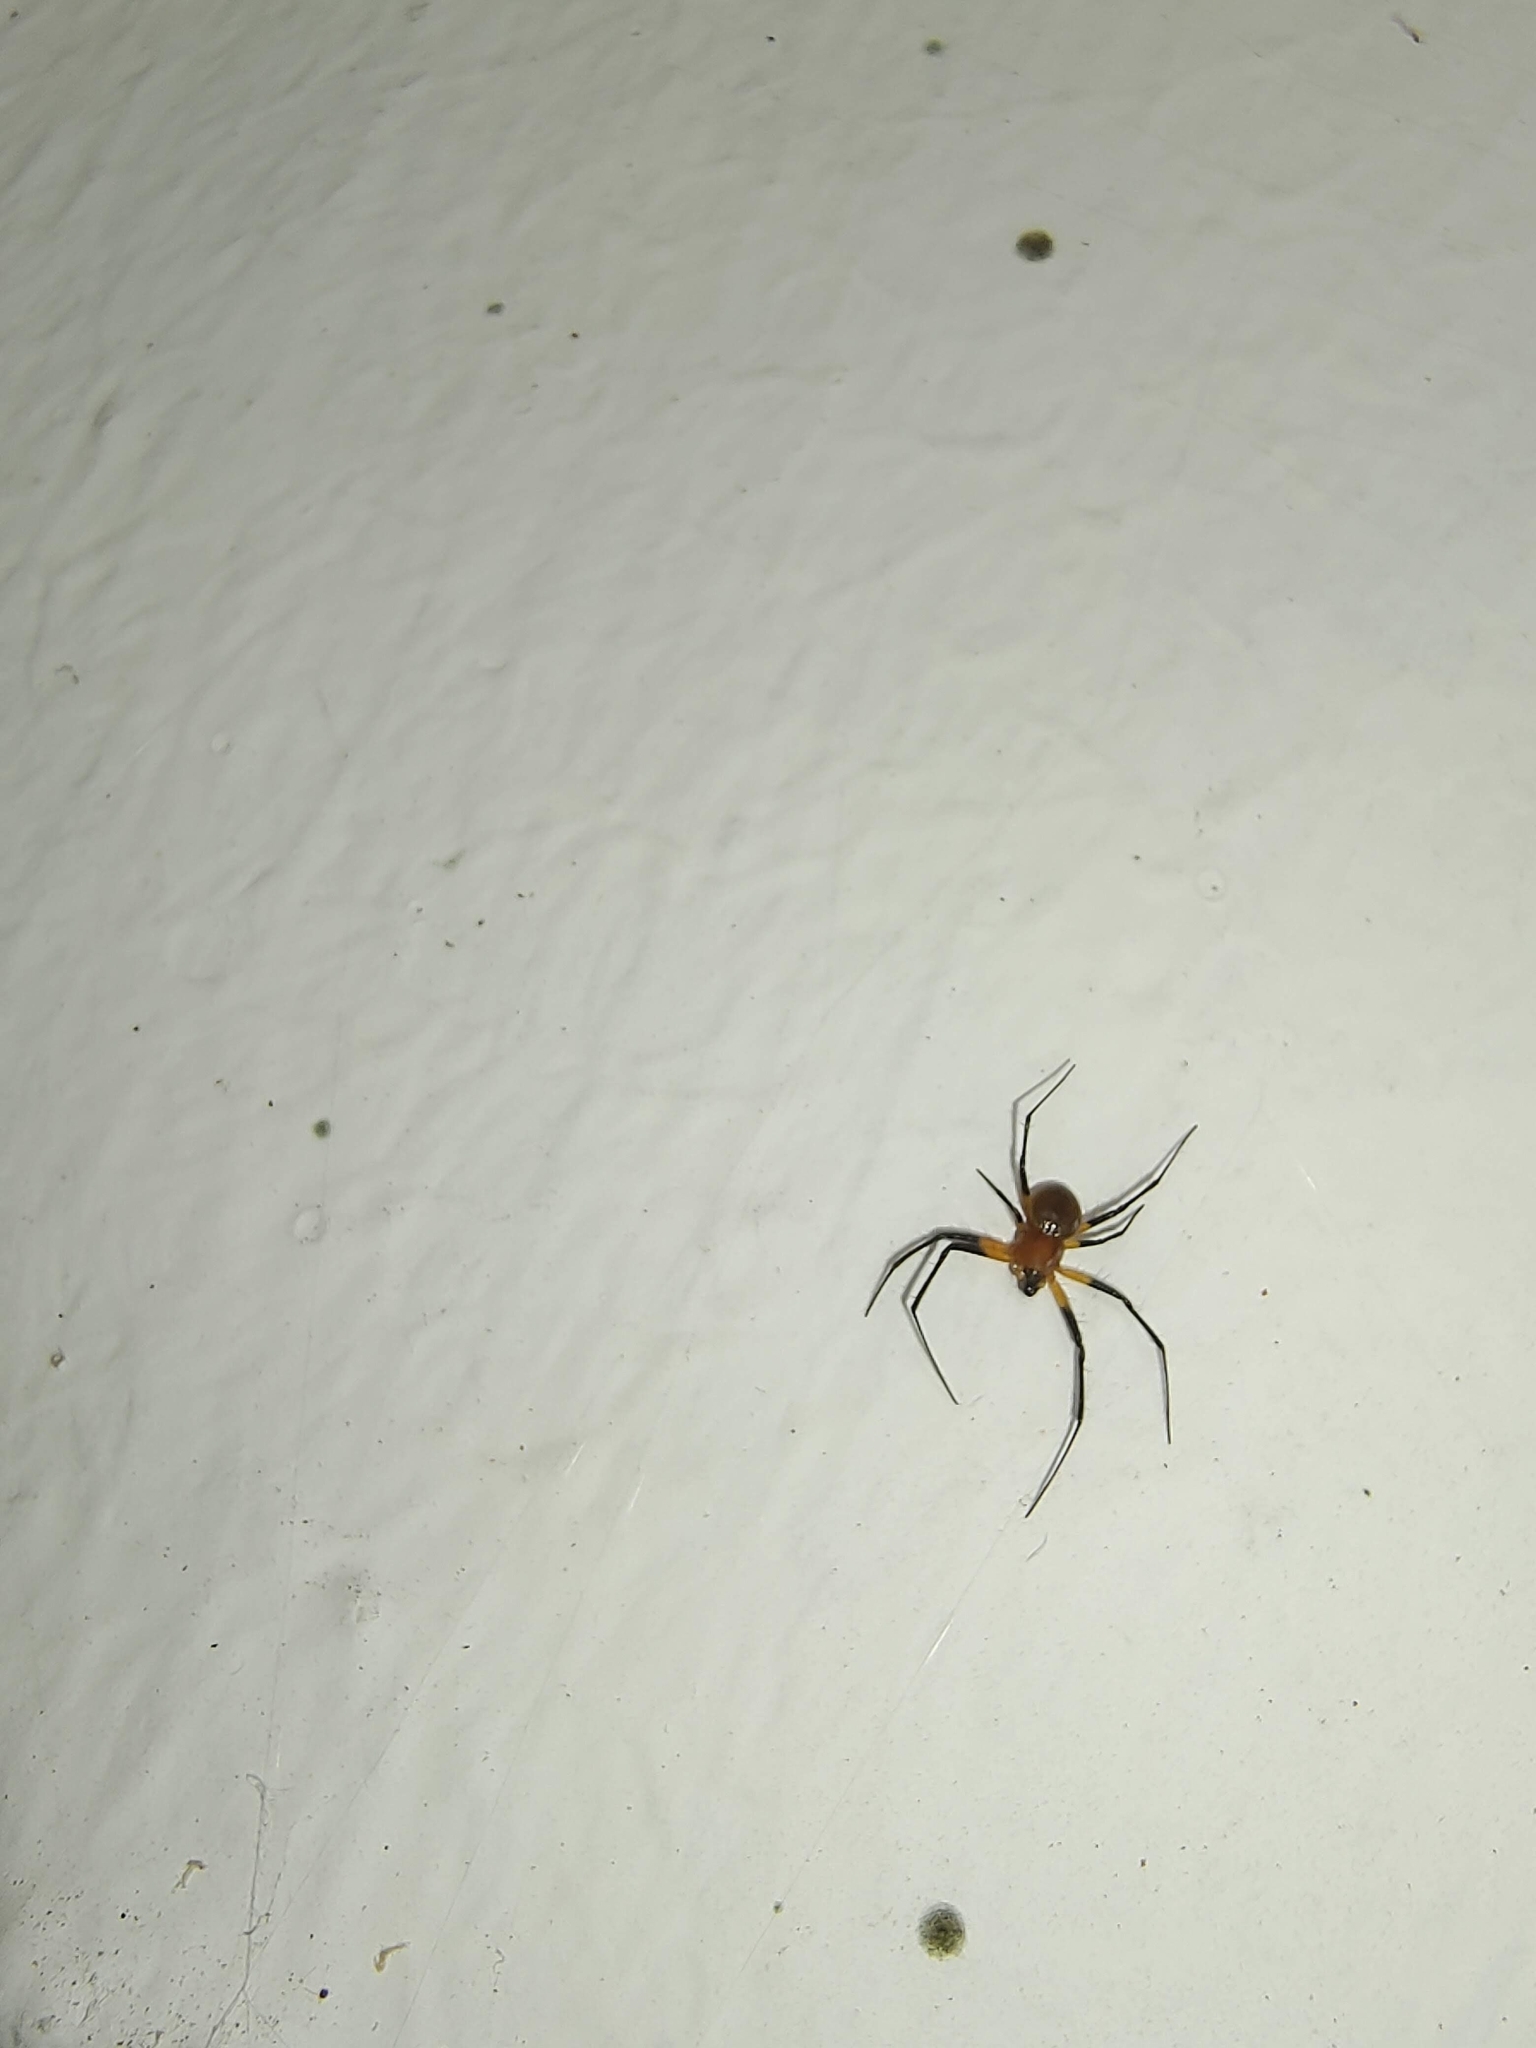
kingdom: Animalia
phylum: Arthropoda
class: Arachnida
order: Araneae
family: Araneidae
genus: Herennia
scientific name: Herennia multipuncta
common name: Spotted coin spider
